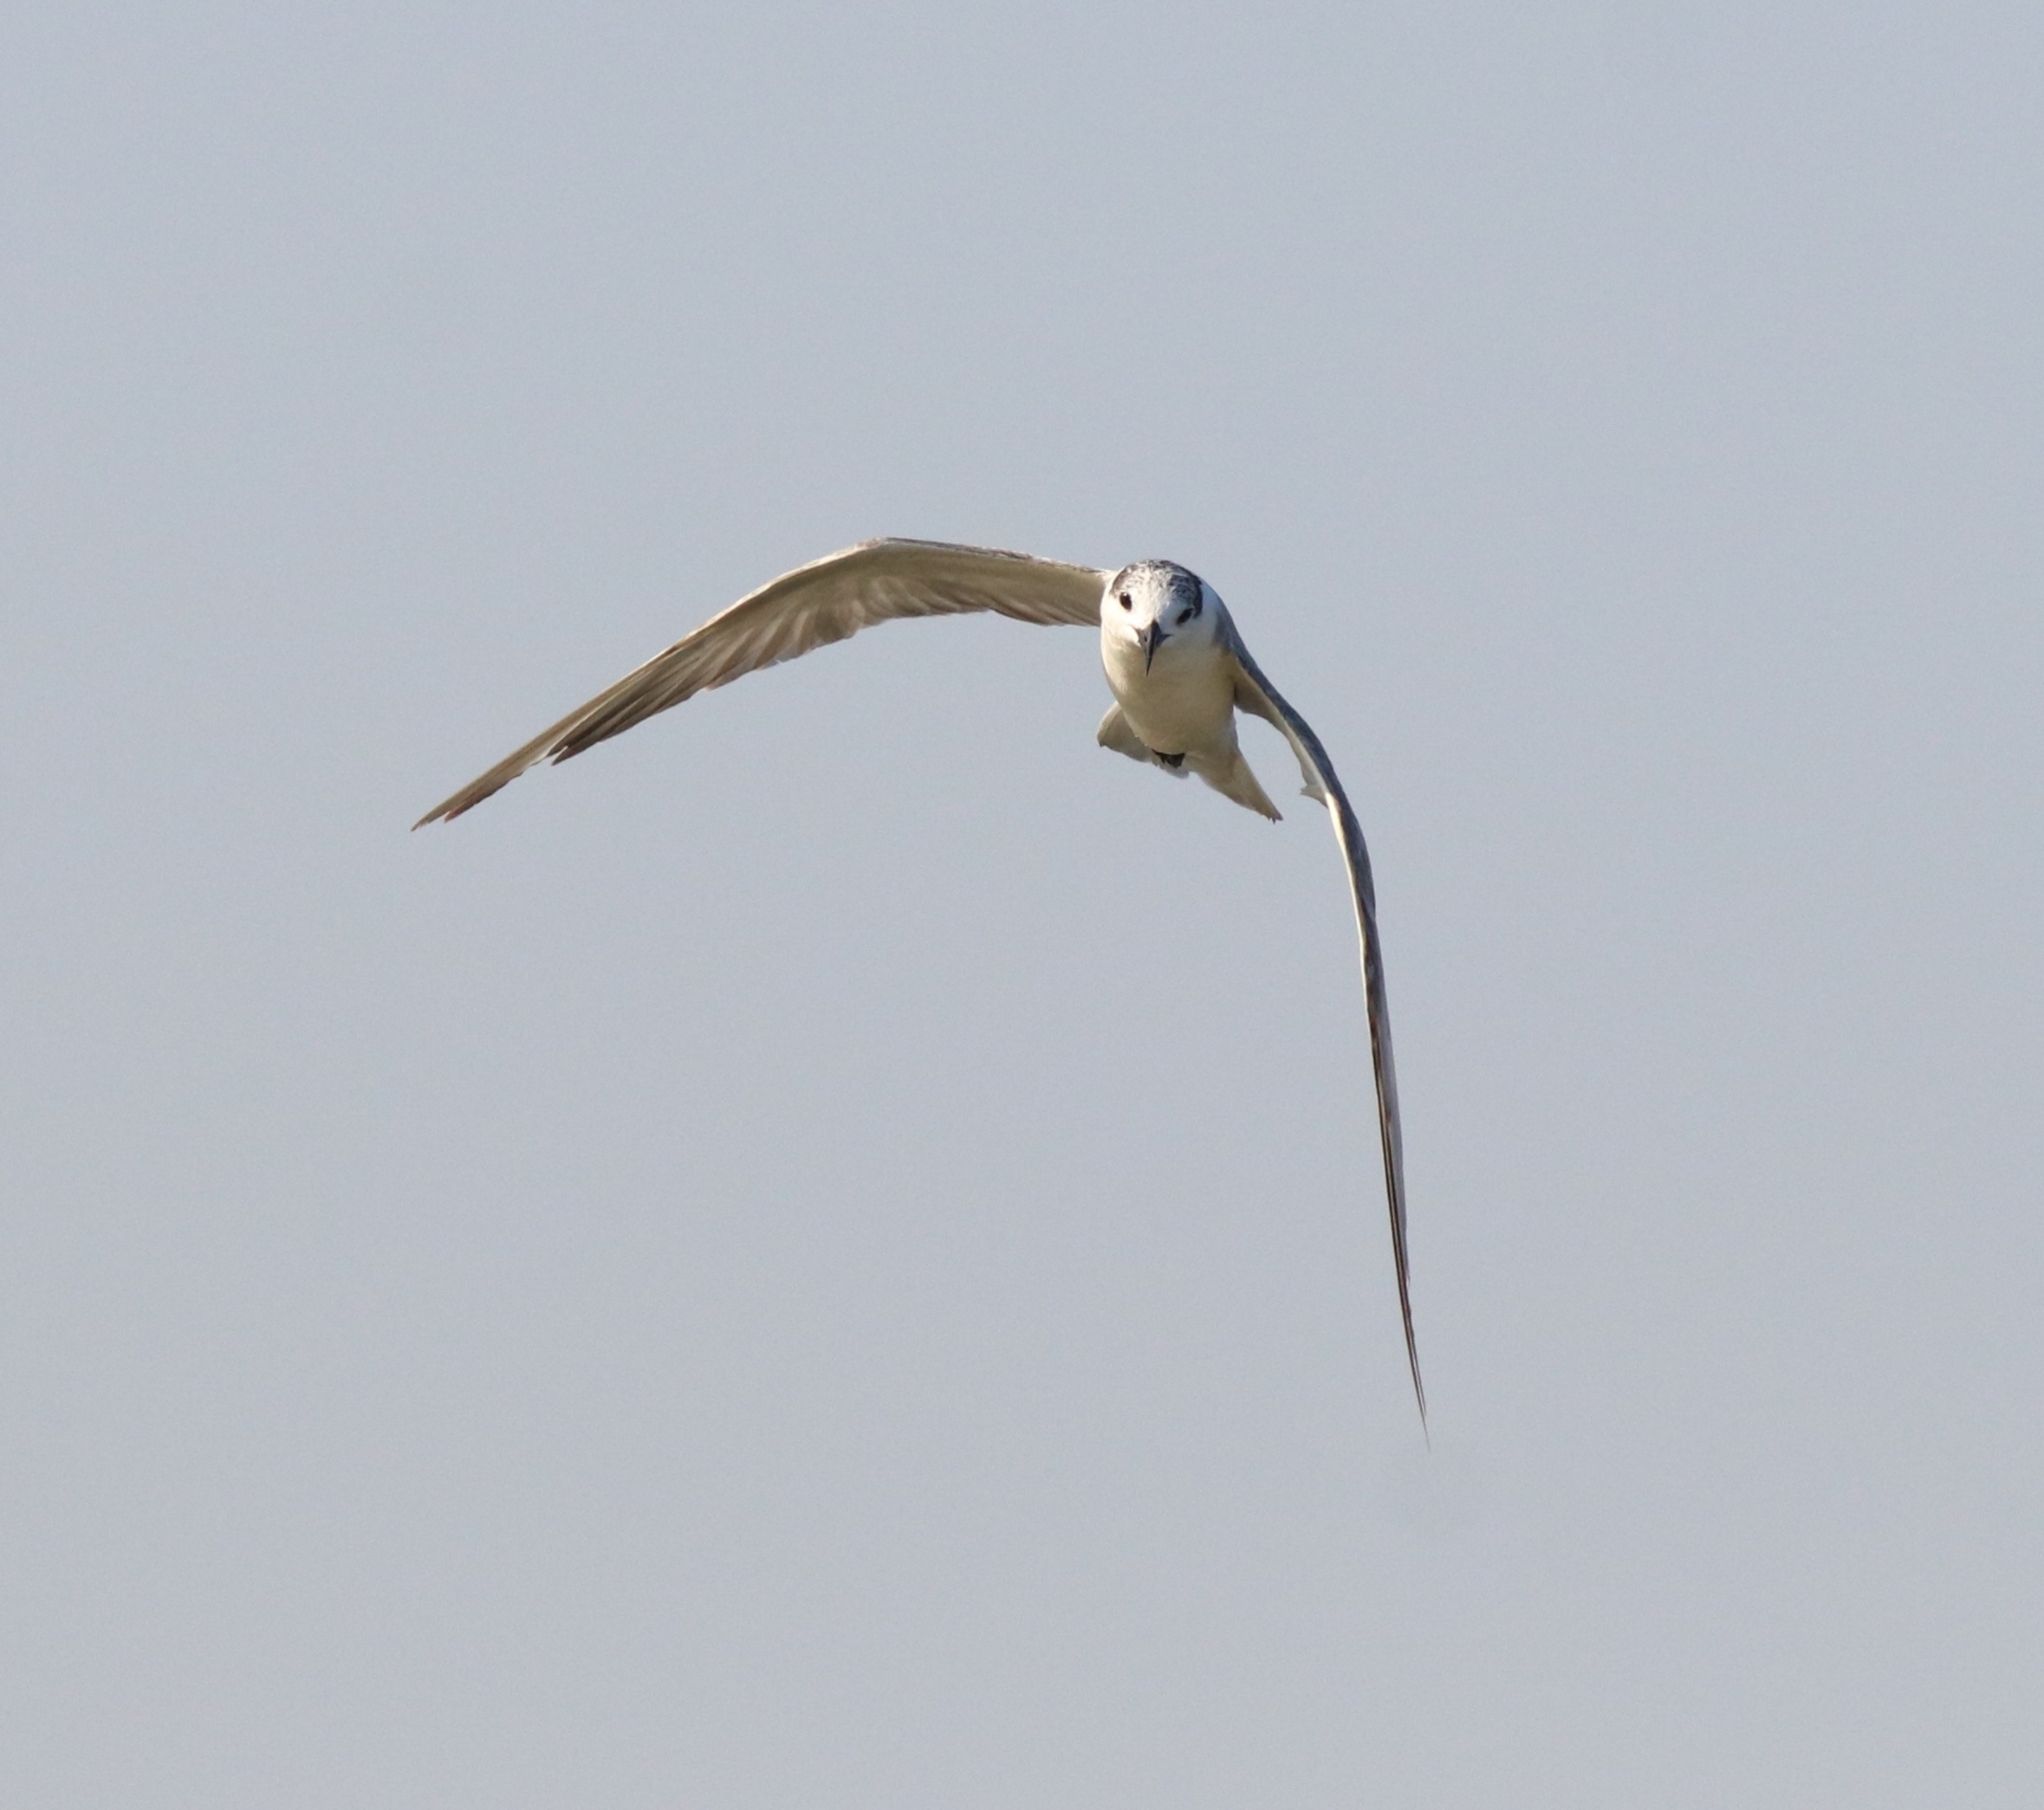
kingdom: Animalia
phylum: Chordata
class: Aves
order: Charadriiformes
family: Laridae
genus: Chlidonias
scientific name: Chlidonias hybrida
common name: Whiskered tern
